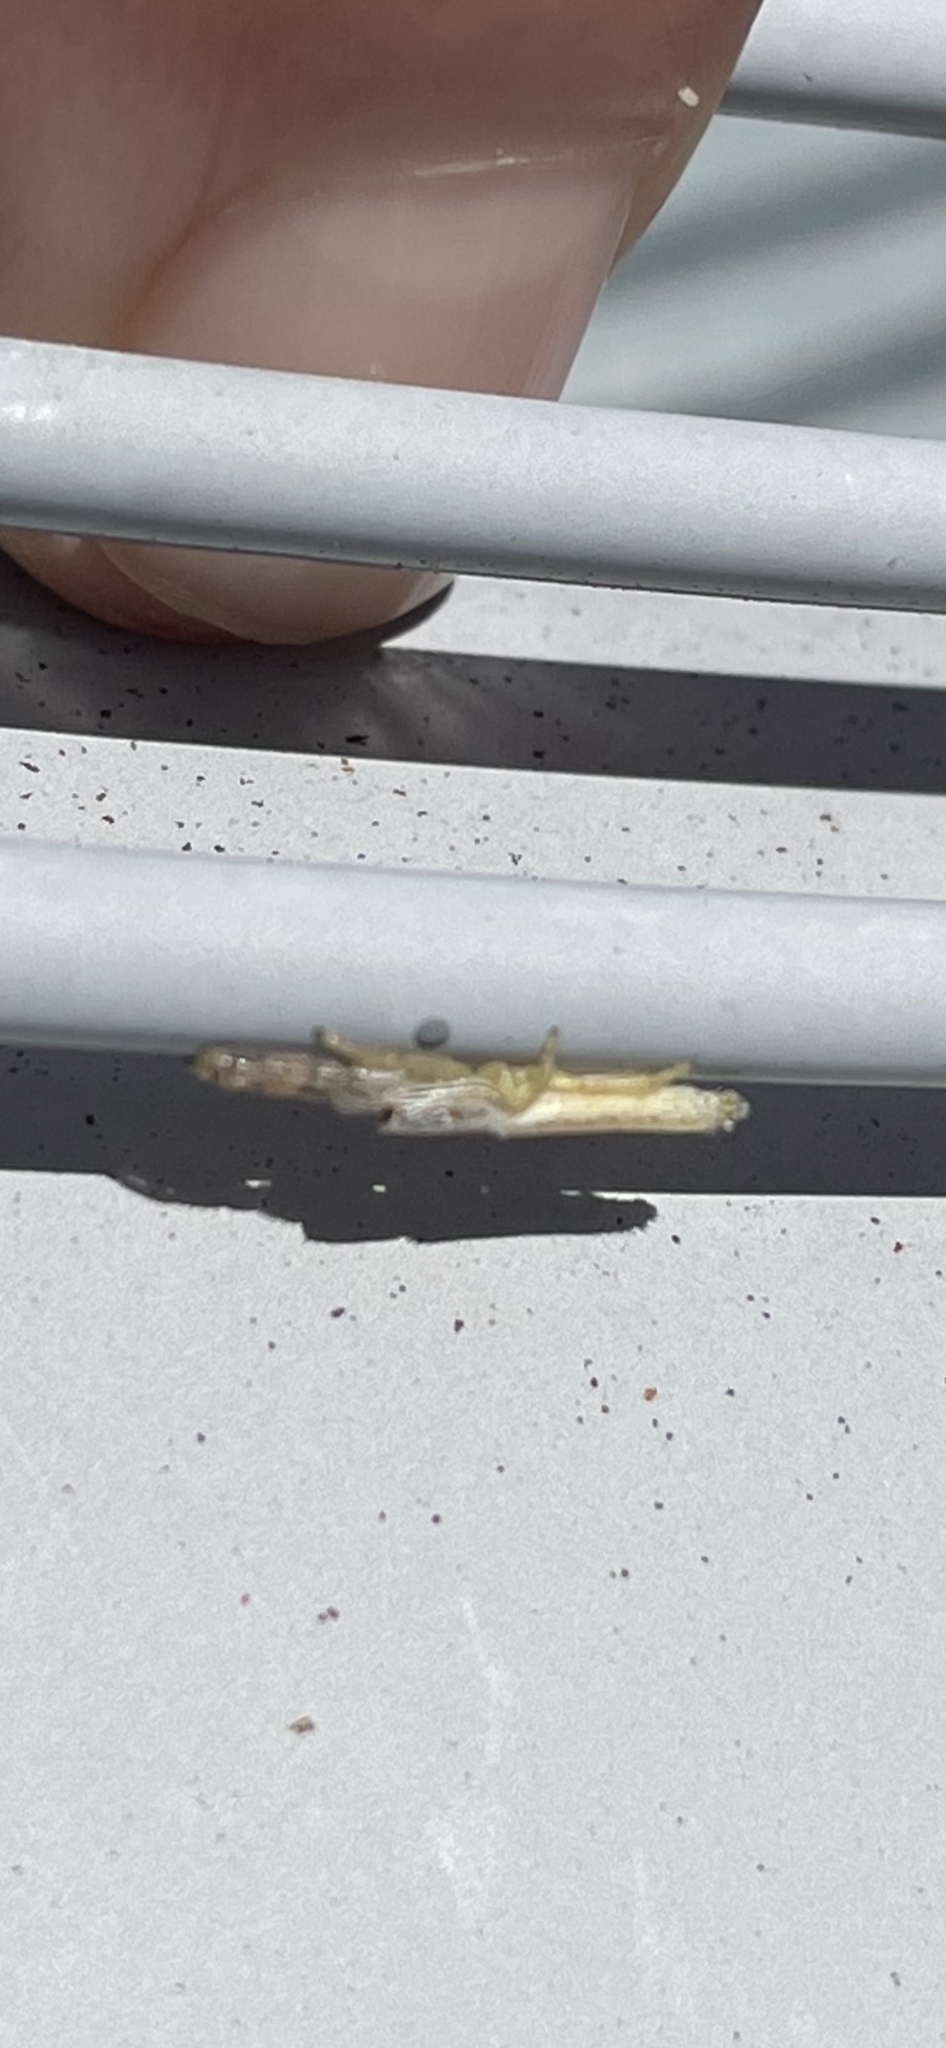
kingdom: Animalia
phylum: Arthropoda
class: Arachnida
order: Araneae
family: Salticidae
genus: Marpissa
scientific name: Marpissa pikei
